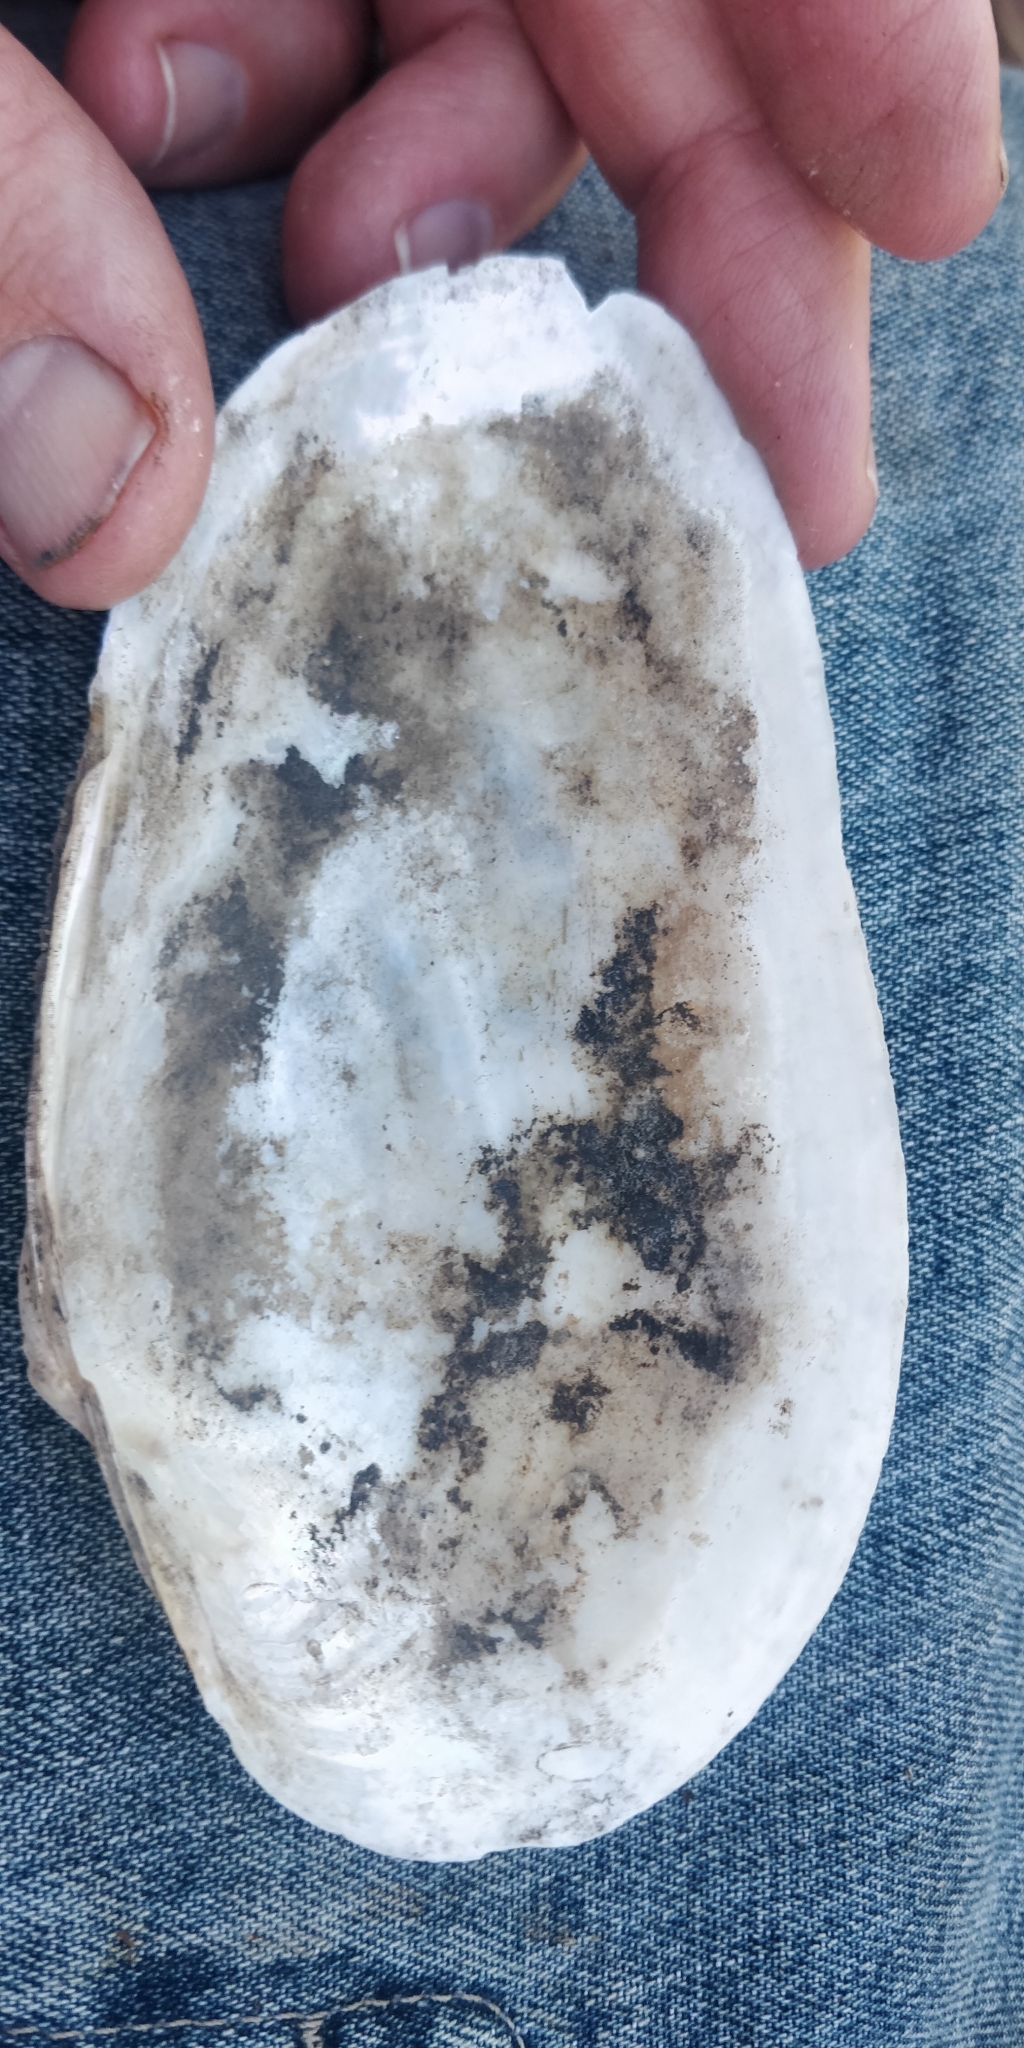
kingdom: Animalia
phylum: Mollusca
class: Bivalvia
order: Unionida
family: Unionidae
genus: Pyganodon
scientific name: Pyganodon grandis
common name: Giant floater
